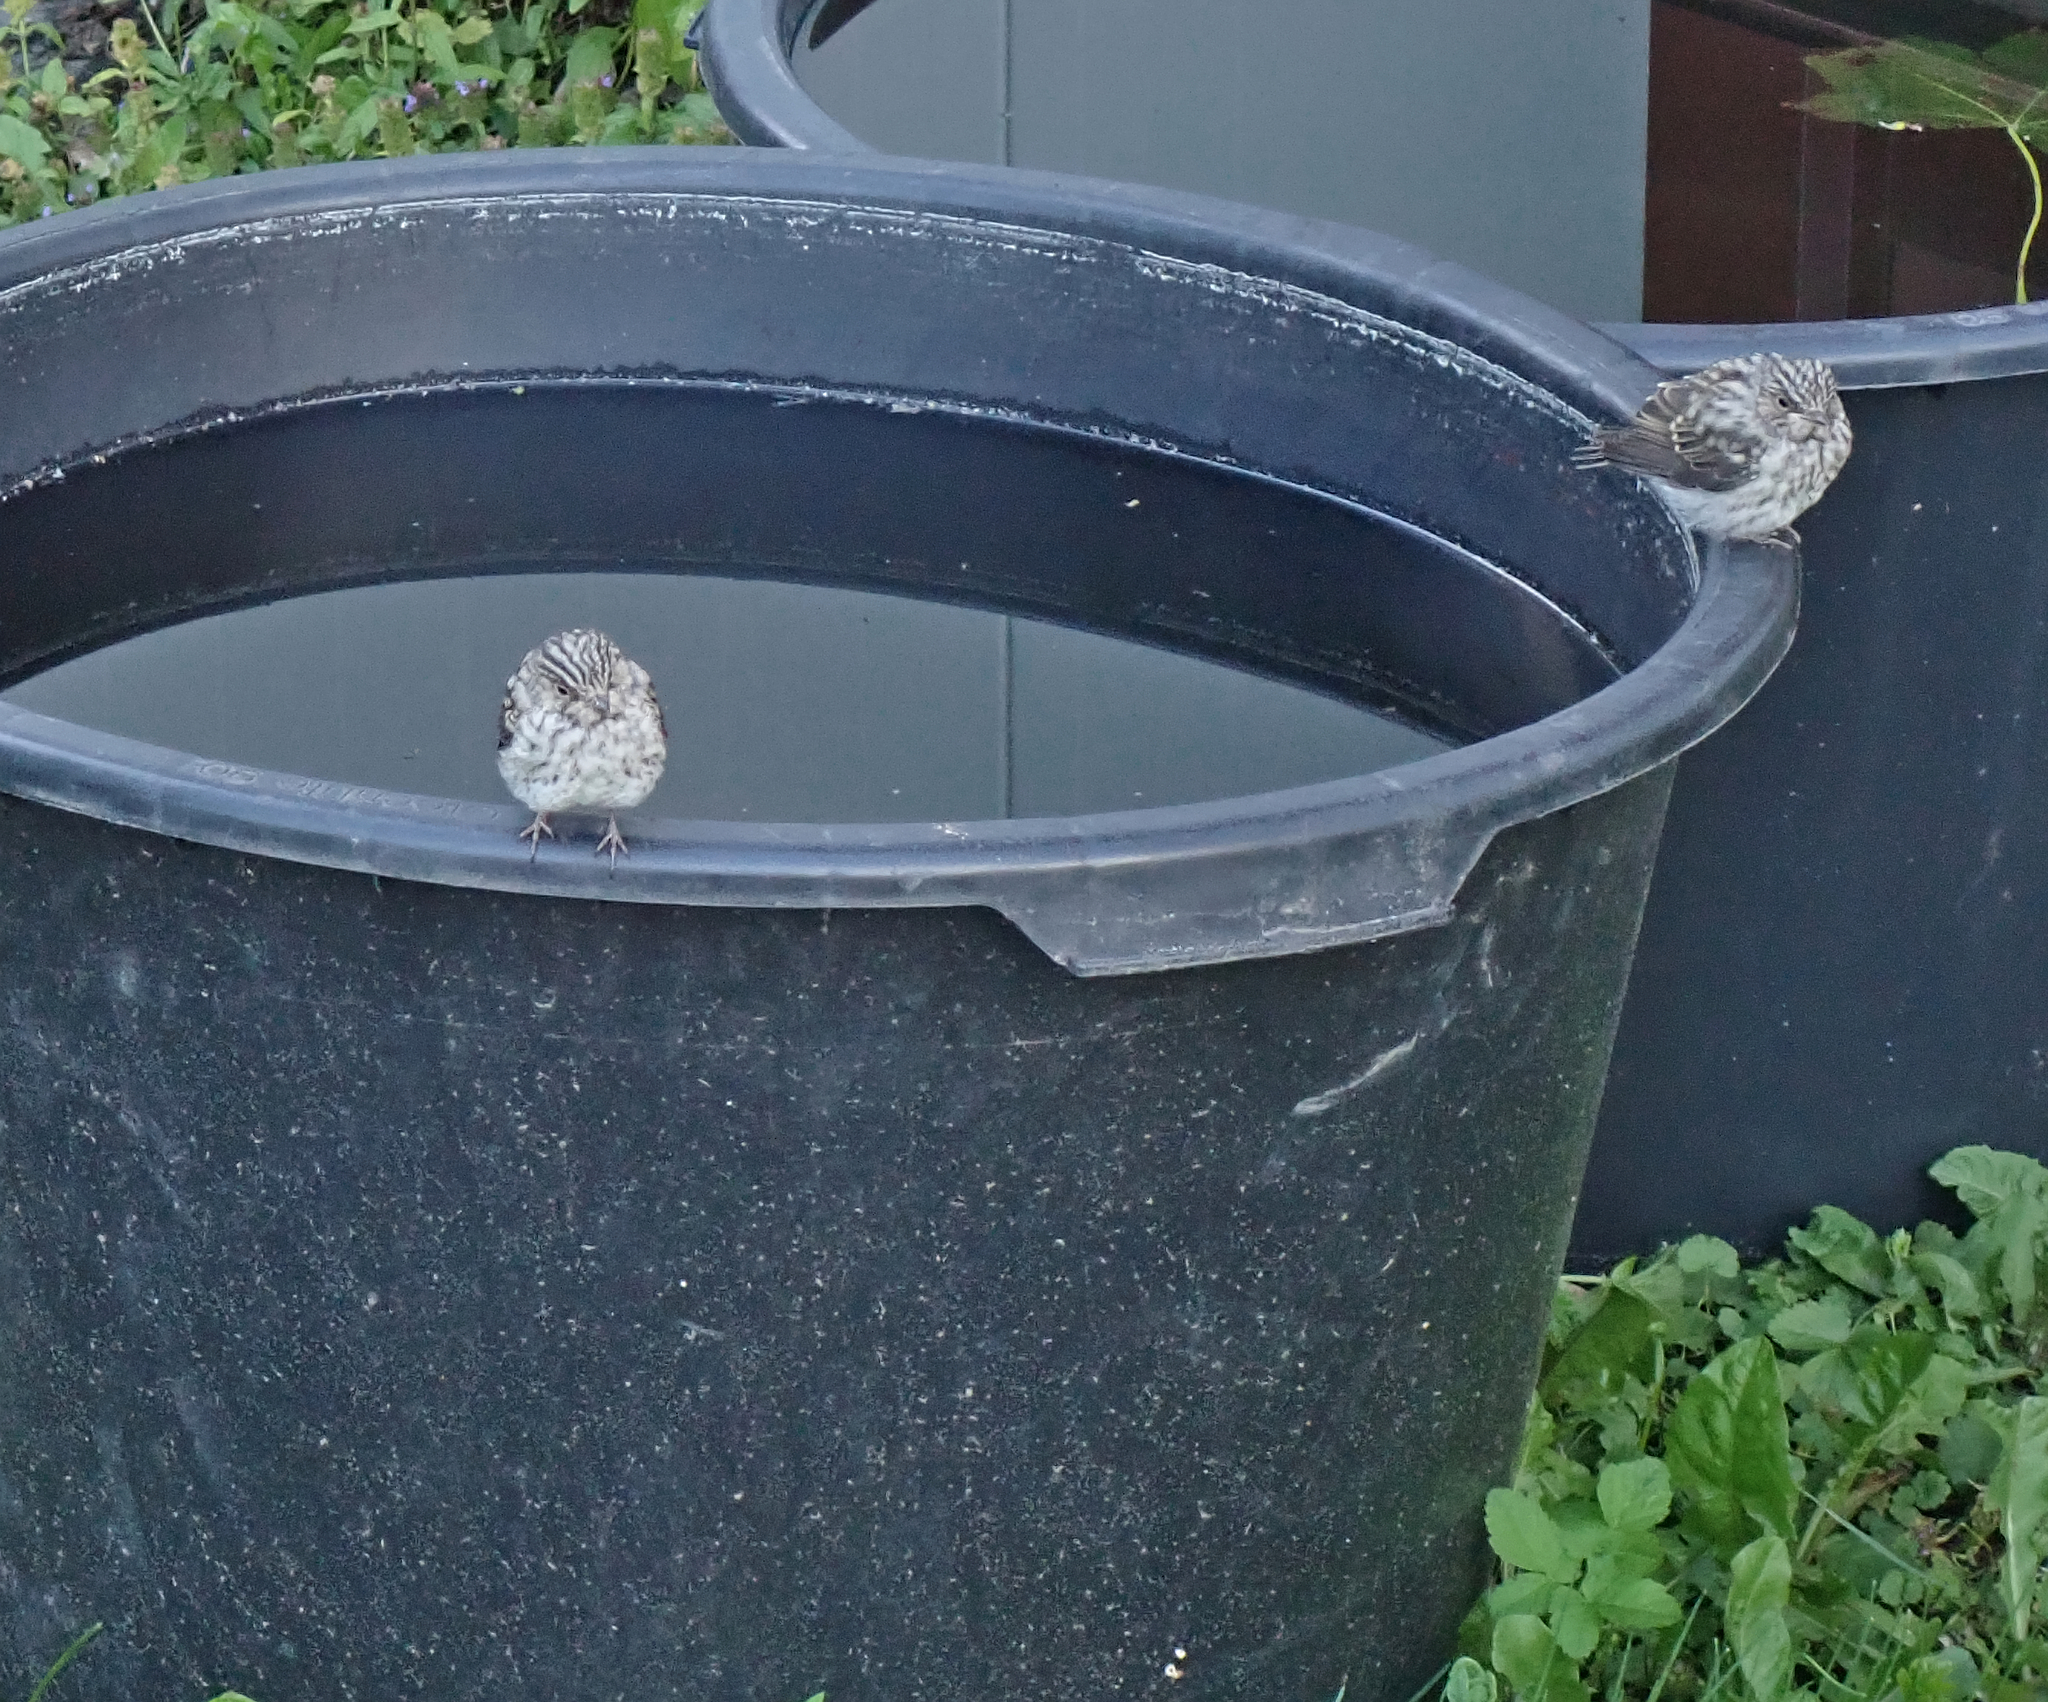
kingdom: Animalia
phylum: Chordata
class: Aves
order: Passeriformes
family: Muscicapidae
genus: Muscicapa
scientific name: Muscicapa striata
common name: Spotted flycatcher
